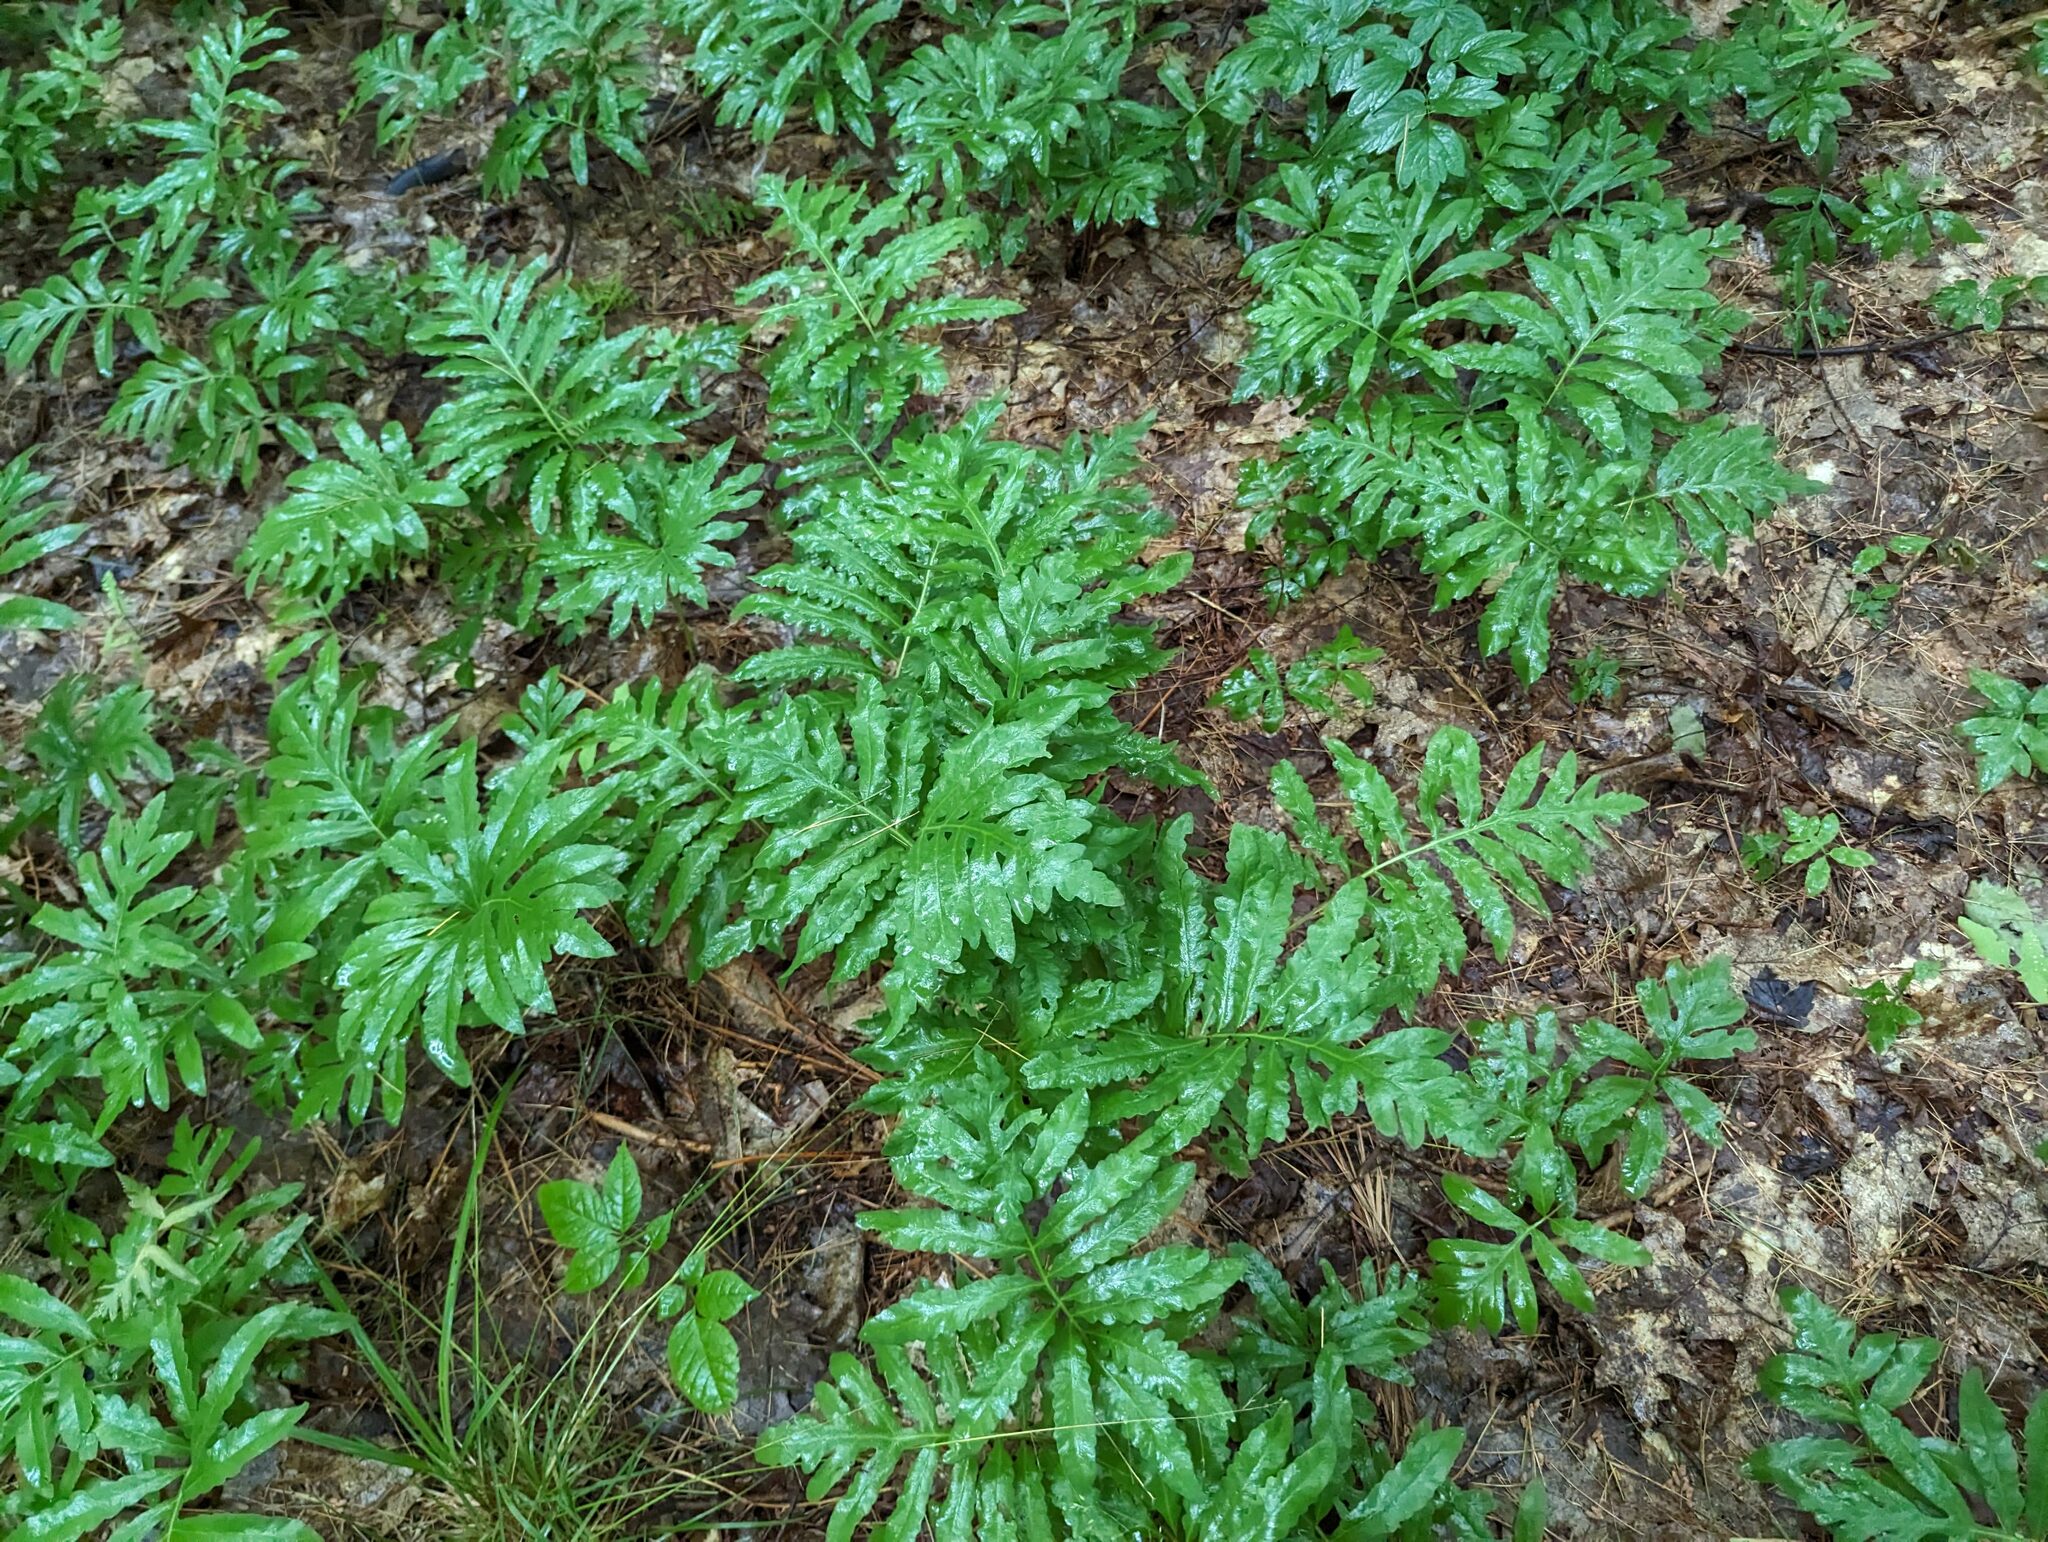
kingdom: Plantae
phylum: Tracheophyta
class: Polypodiopsida
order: Polypodiales
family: Onocleaceae
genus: Onoclea
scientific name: Onoclea sensibilis
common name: Sensitive fern
